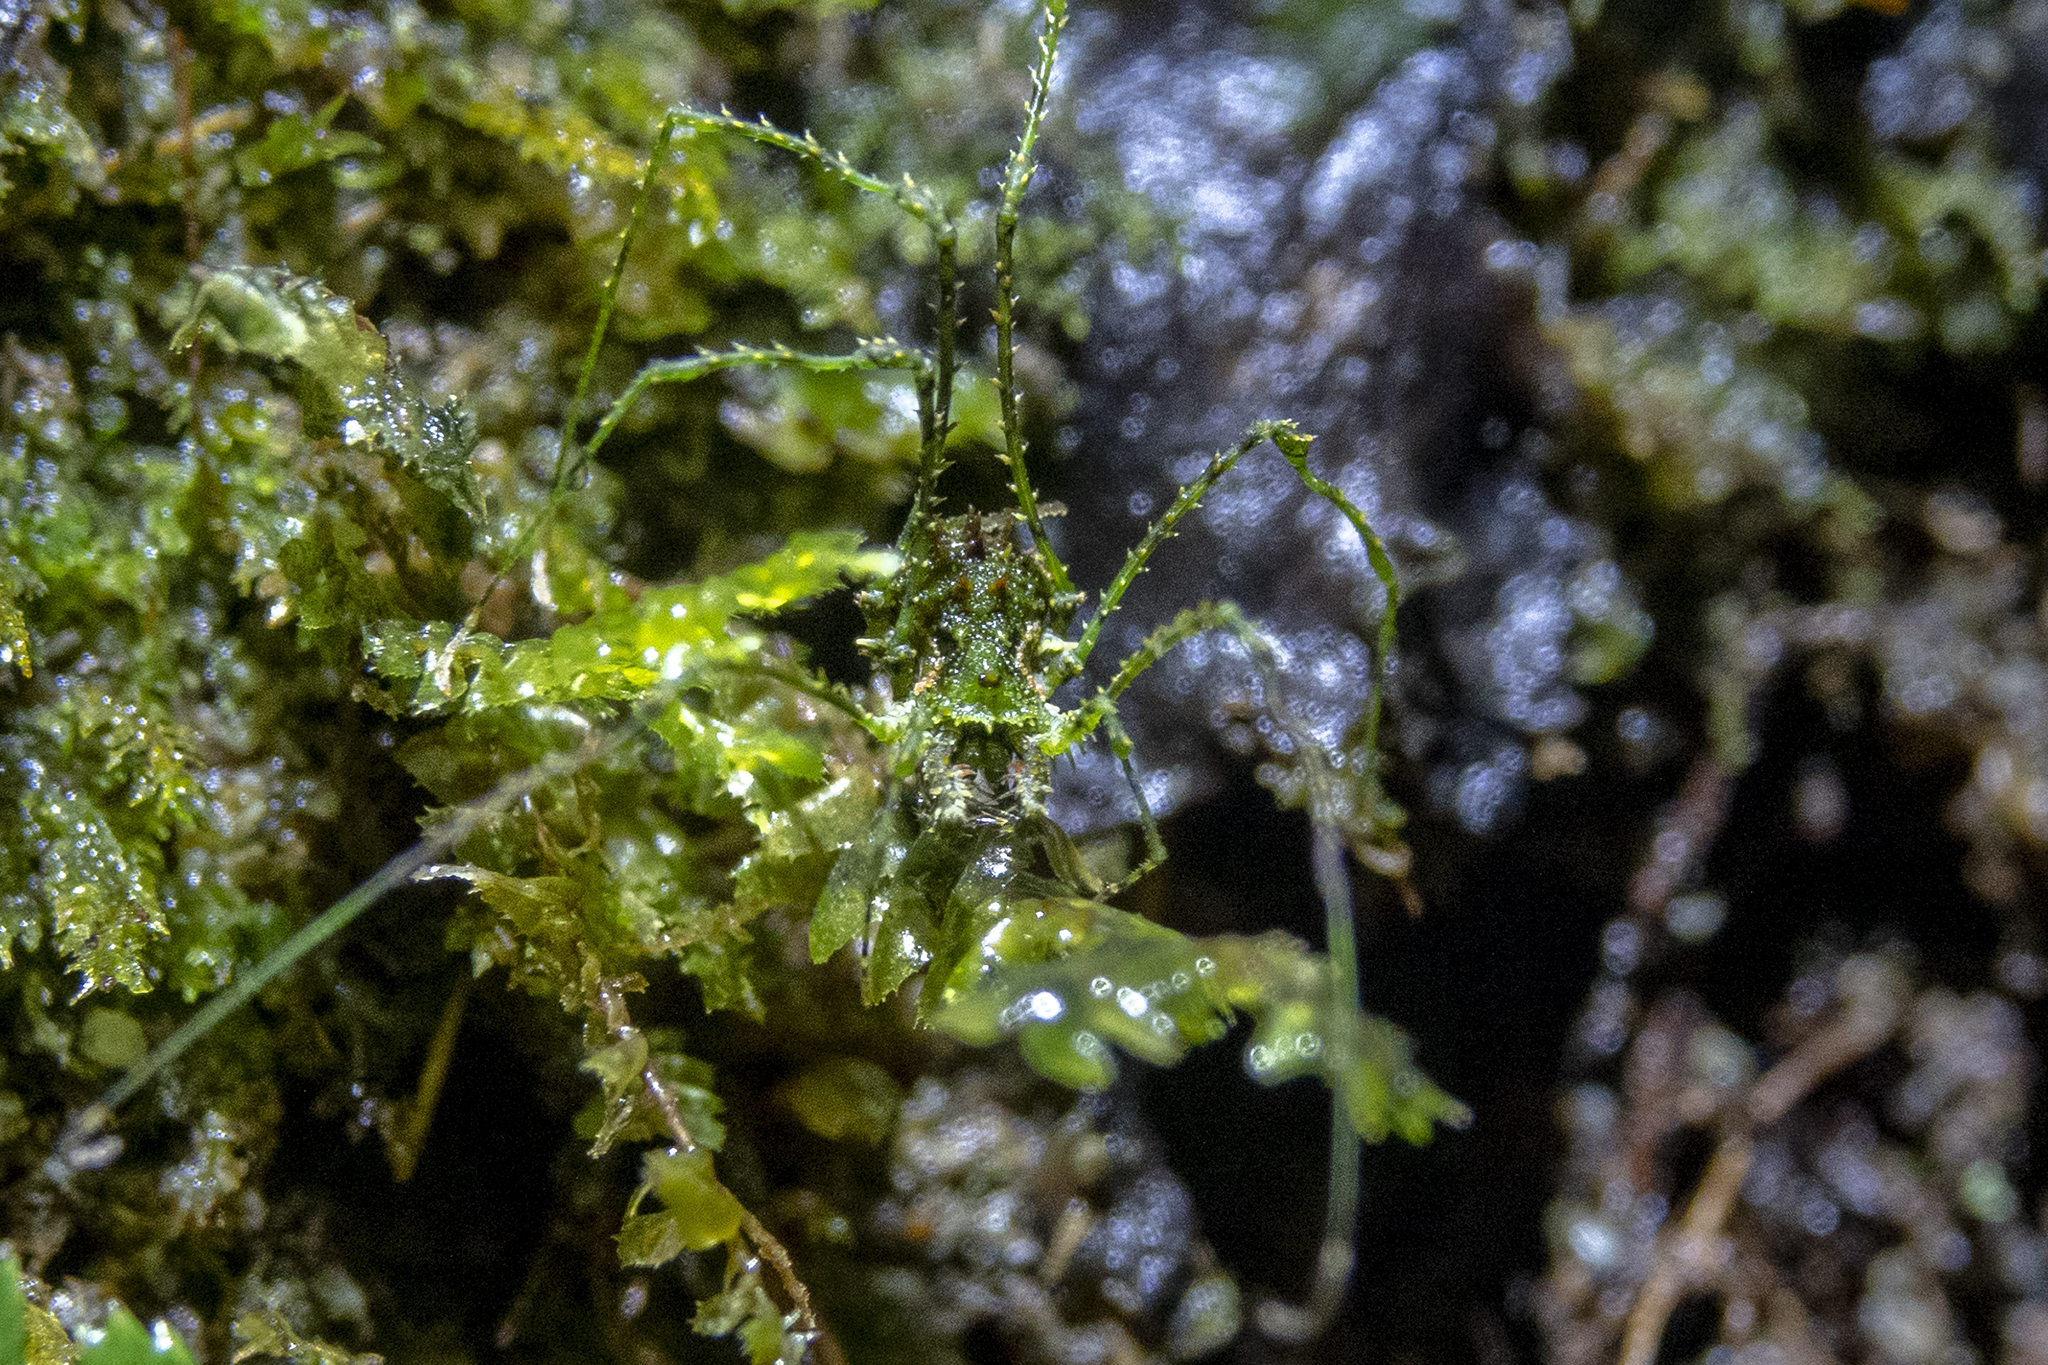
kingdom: Animalia
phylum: Arthropoda
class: Arachnida
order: Opiliones
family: Triaenonychidae
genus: Algidia
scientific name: Algidia viridata
